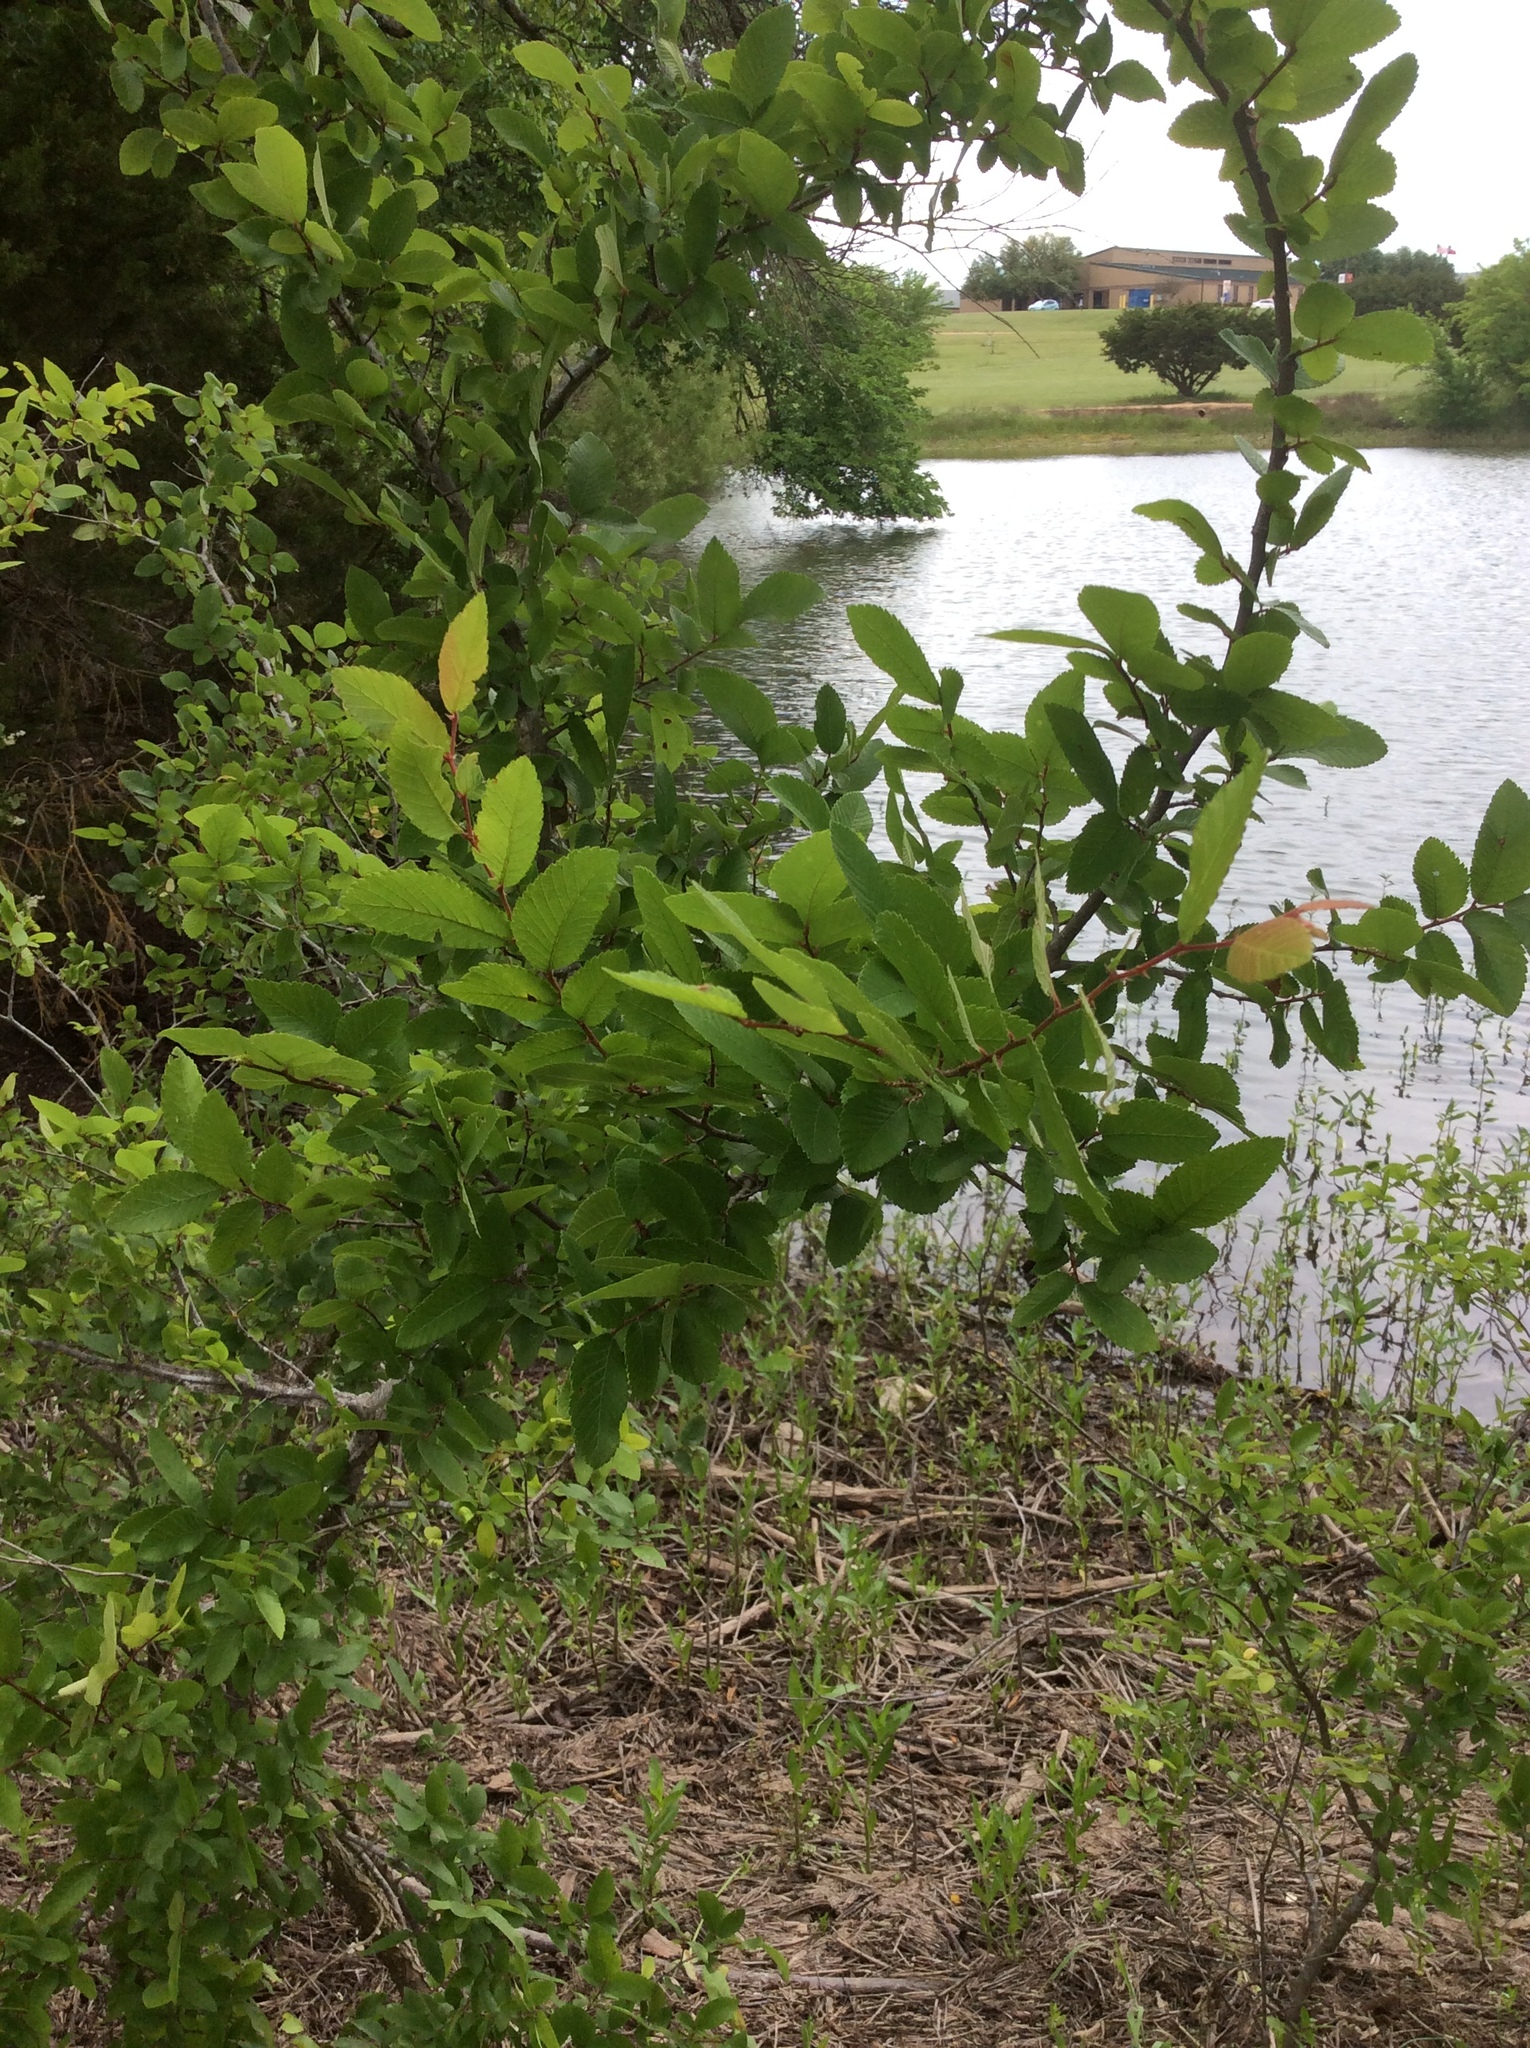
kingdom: Plantae
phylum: Tracheophyta
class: Magnoliopsida
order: Rosales
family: Ulmaceae
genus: Ulmus
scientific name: Ulmus crassifolia
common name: Basket elm
